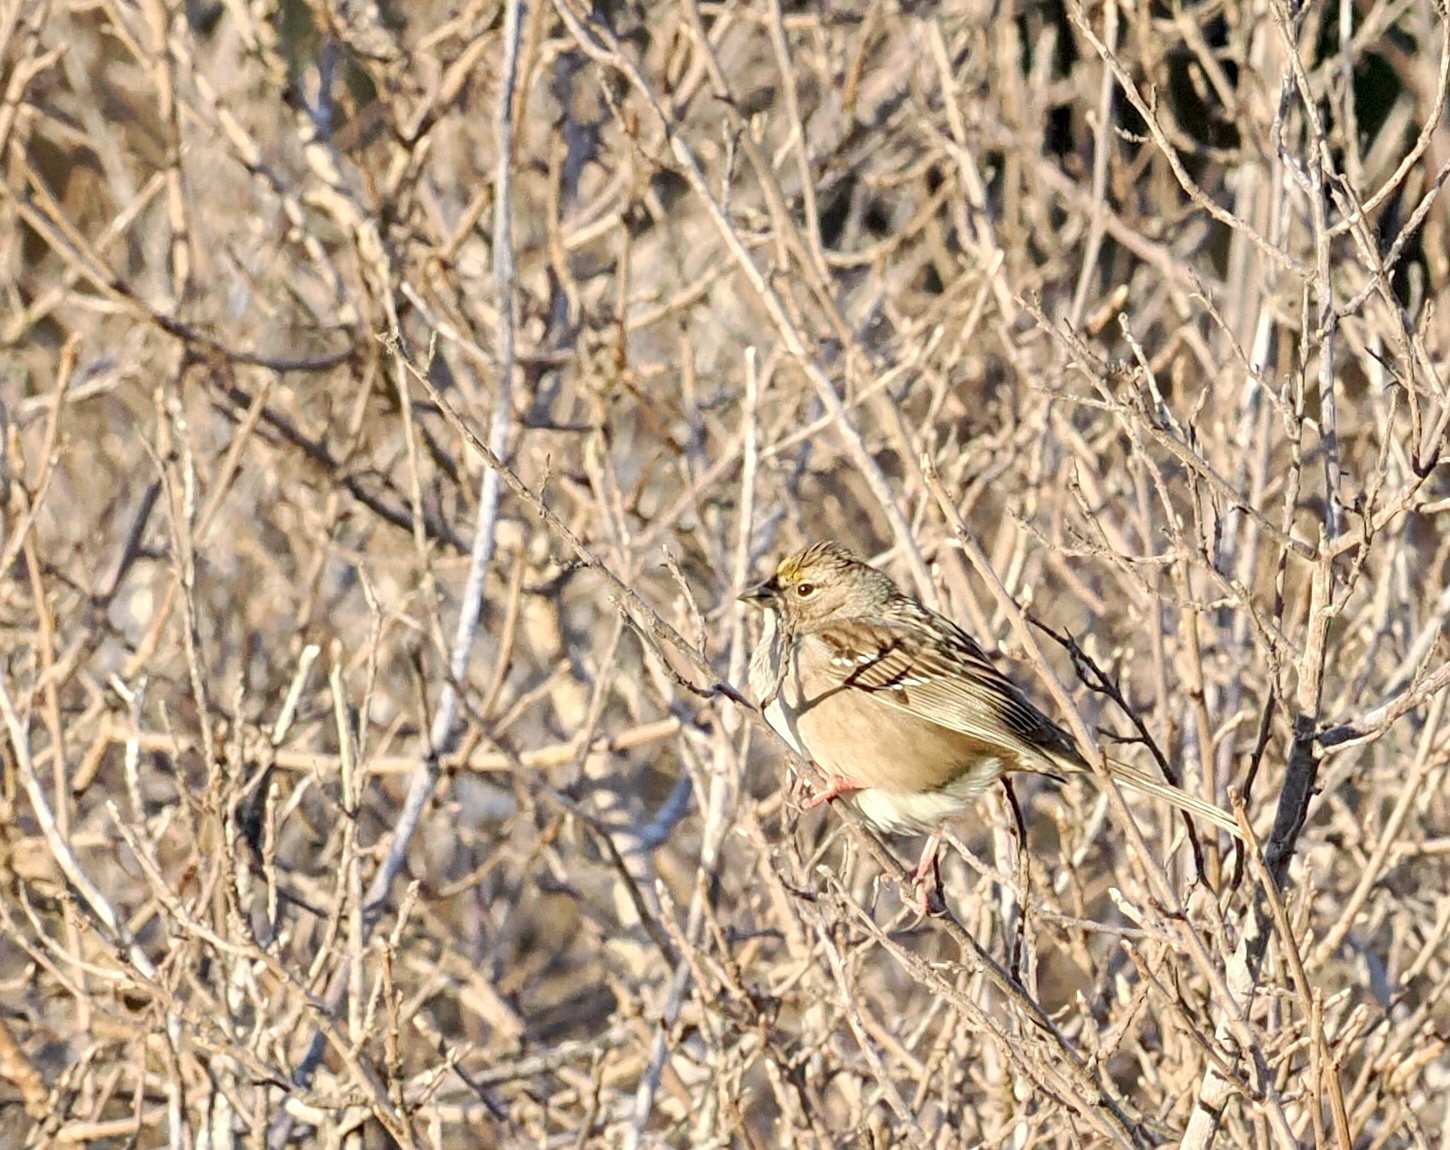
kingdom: Animalia
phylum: Chordata
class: Aves
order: Passeriformes
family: Passerellidae
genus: Zonotrichia
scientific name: Zonotrichia atricapilla
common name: Golden-crowned sparrow
